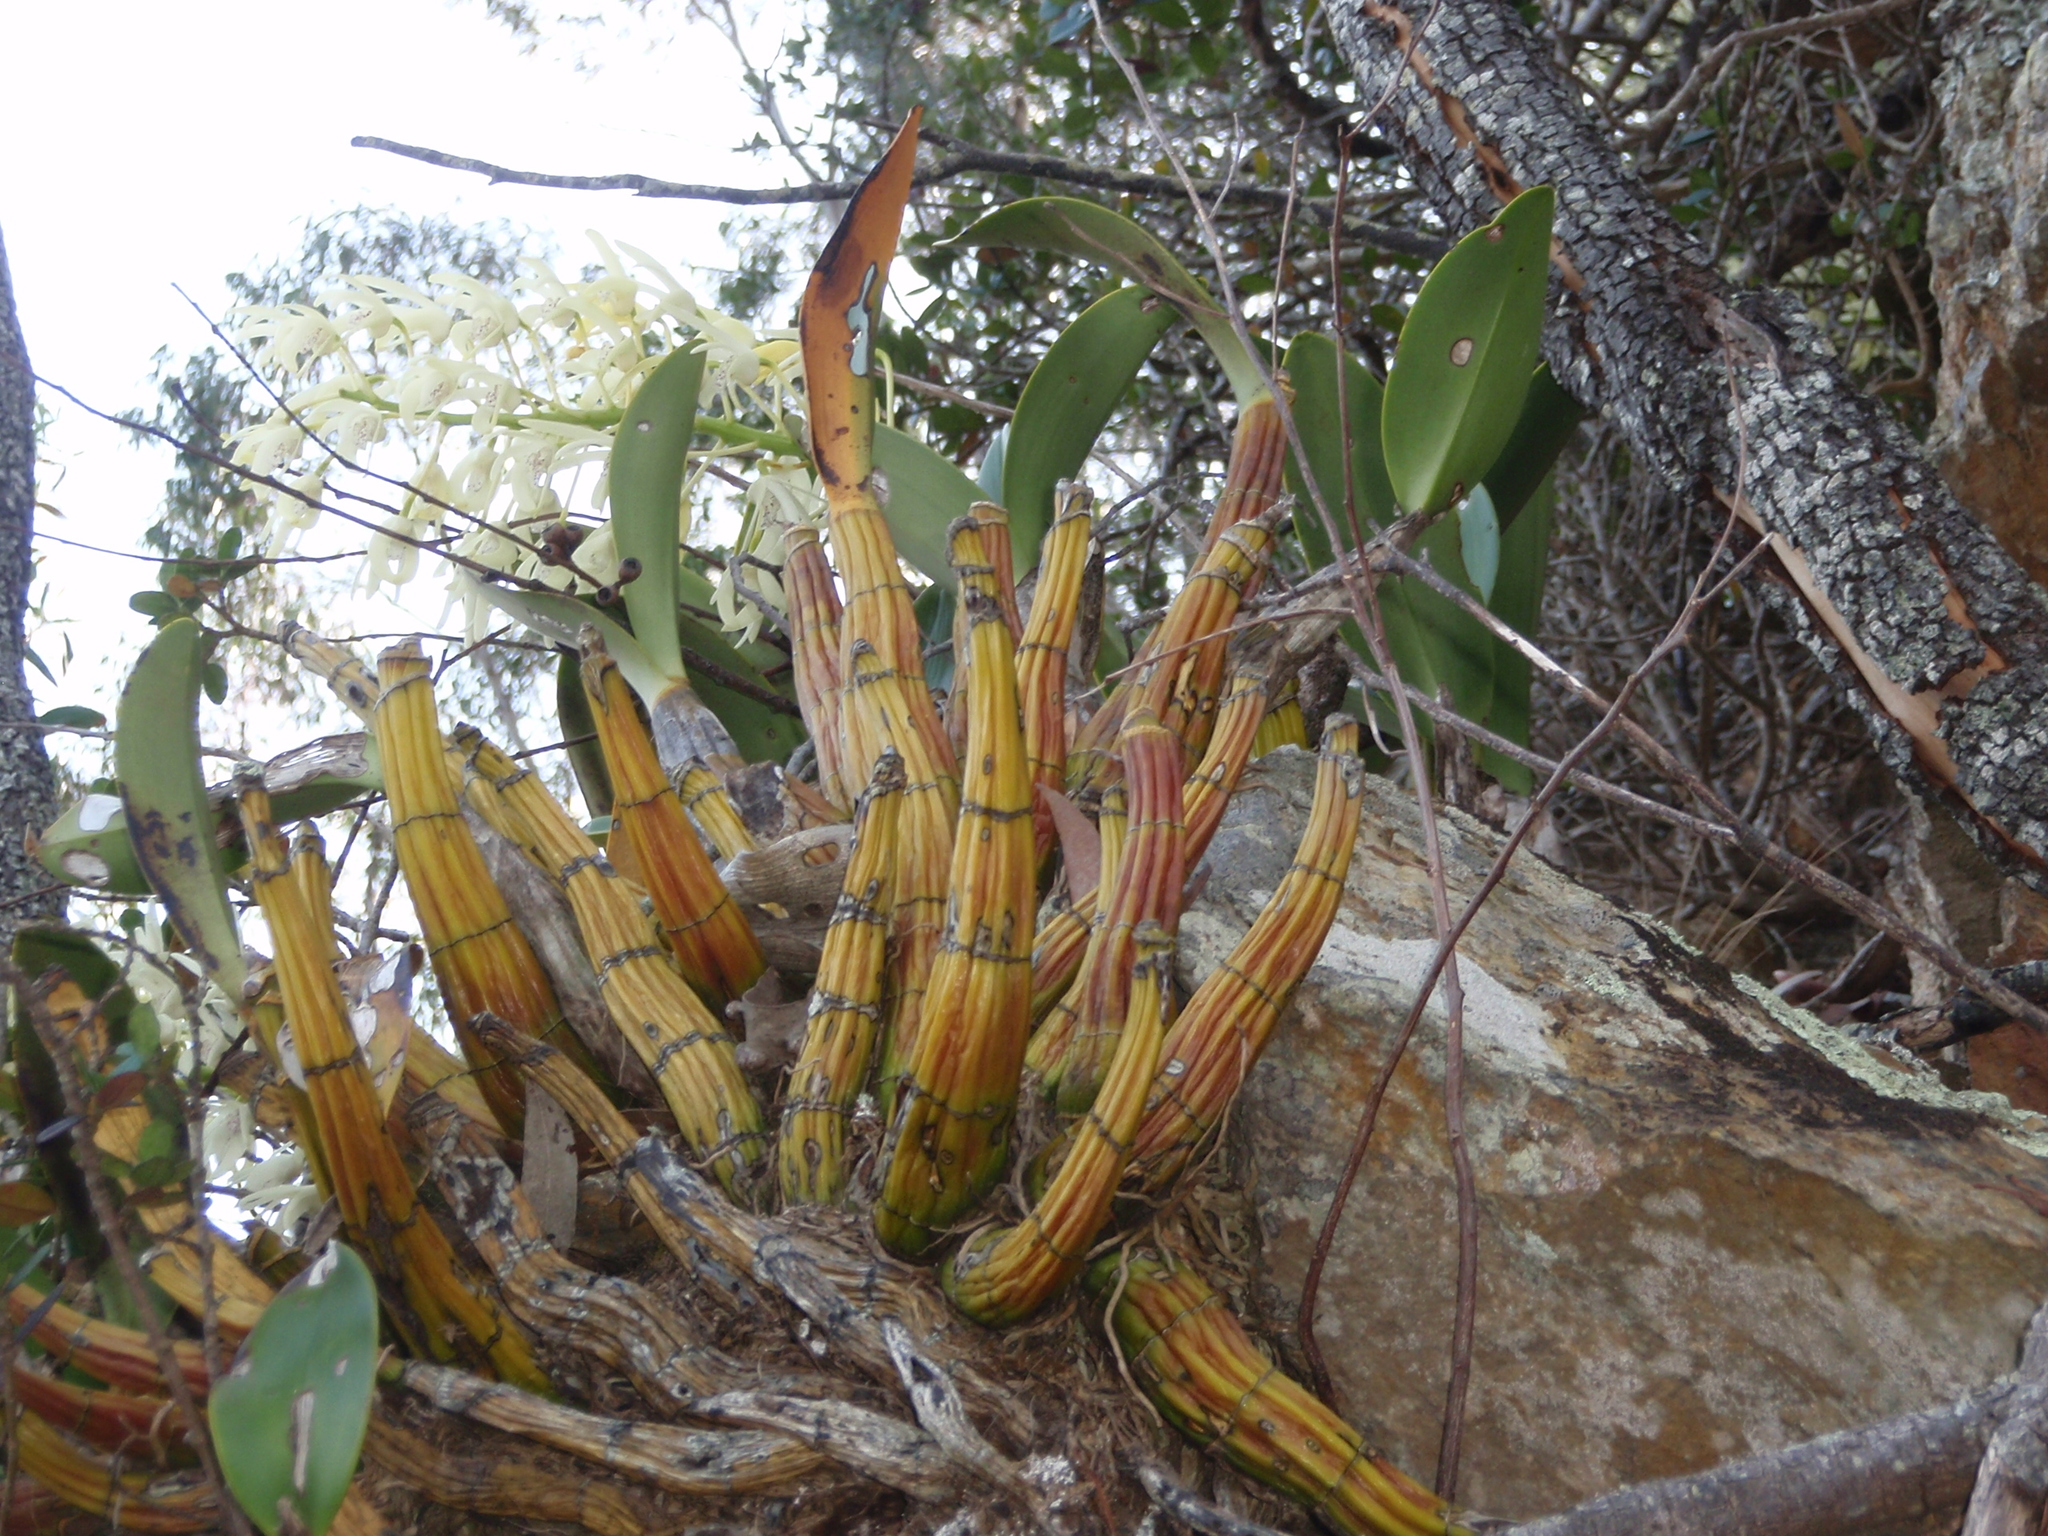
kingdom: Plantae
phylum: Tracheophyta
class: Liliopsida
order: Asparagales
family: Orchidaceae
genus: Dendrobium
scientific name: Dendrobium speciosum
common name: Rock-lily
